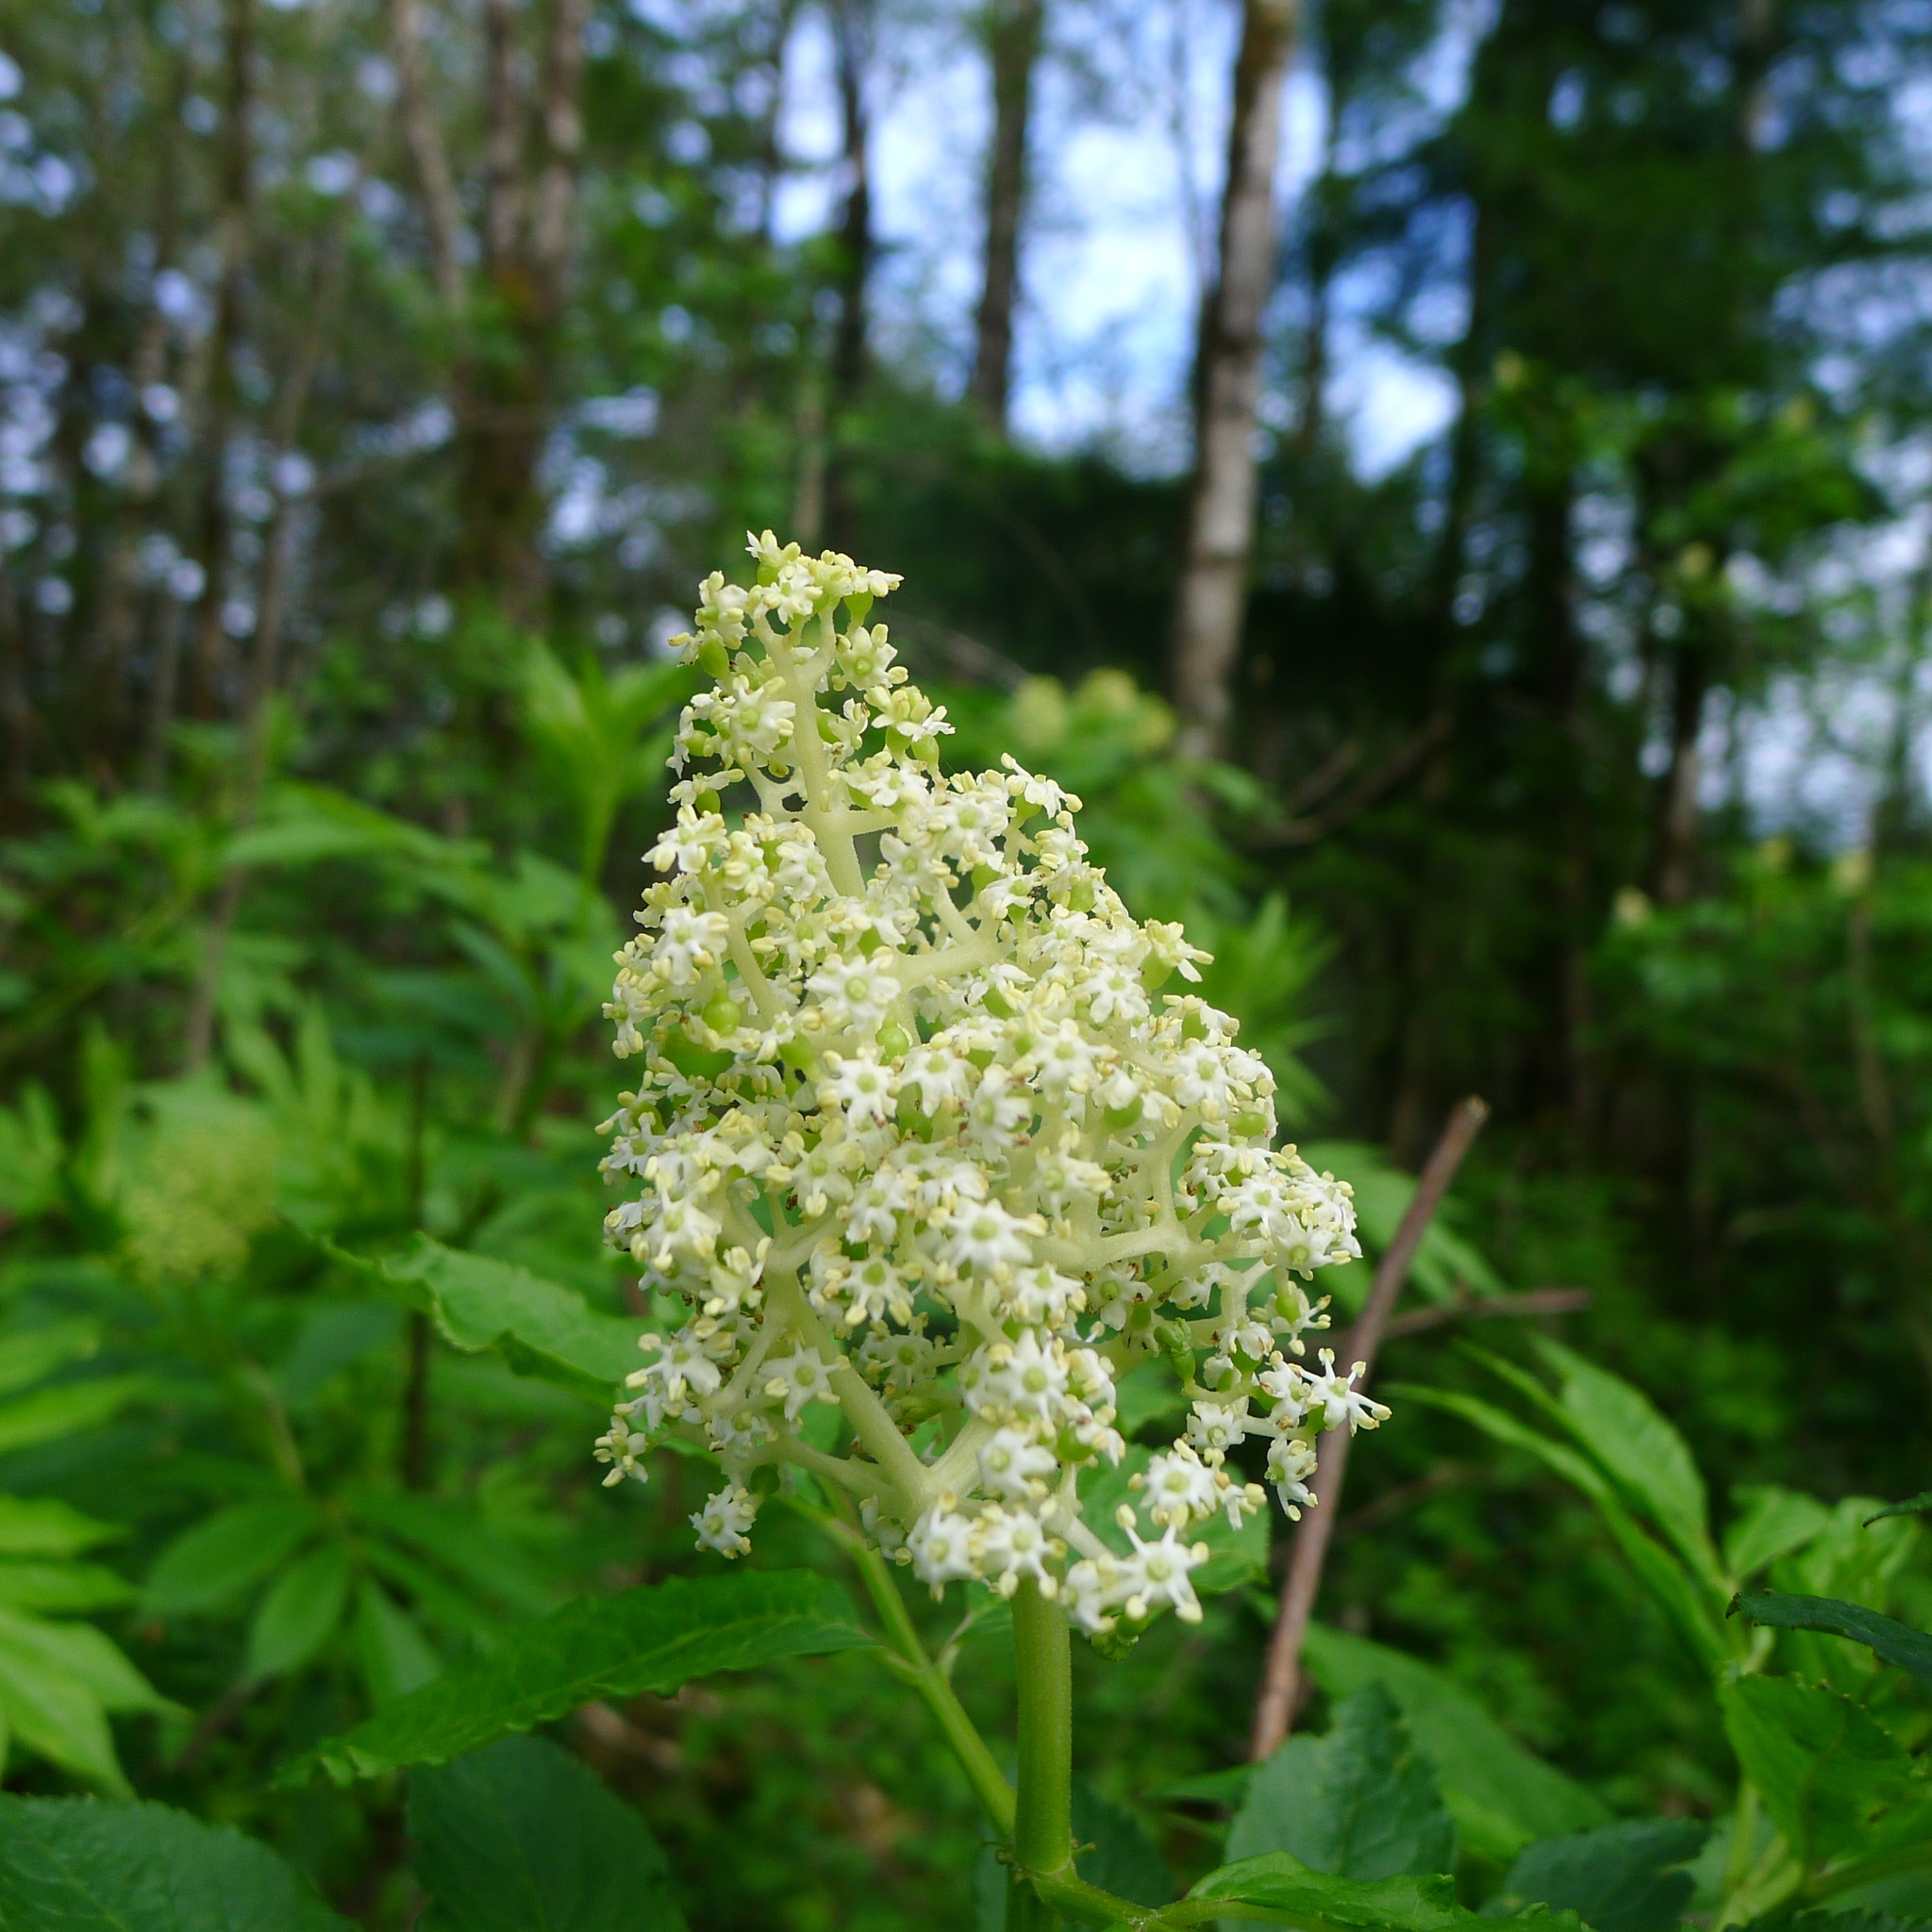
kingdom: Plantae
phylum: Tracheophyta
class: Magnoliopsida
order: Dipsacales
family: Viburnaceae
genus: Sambucus
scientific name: Sambucus cerulea
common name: Blue elder
